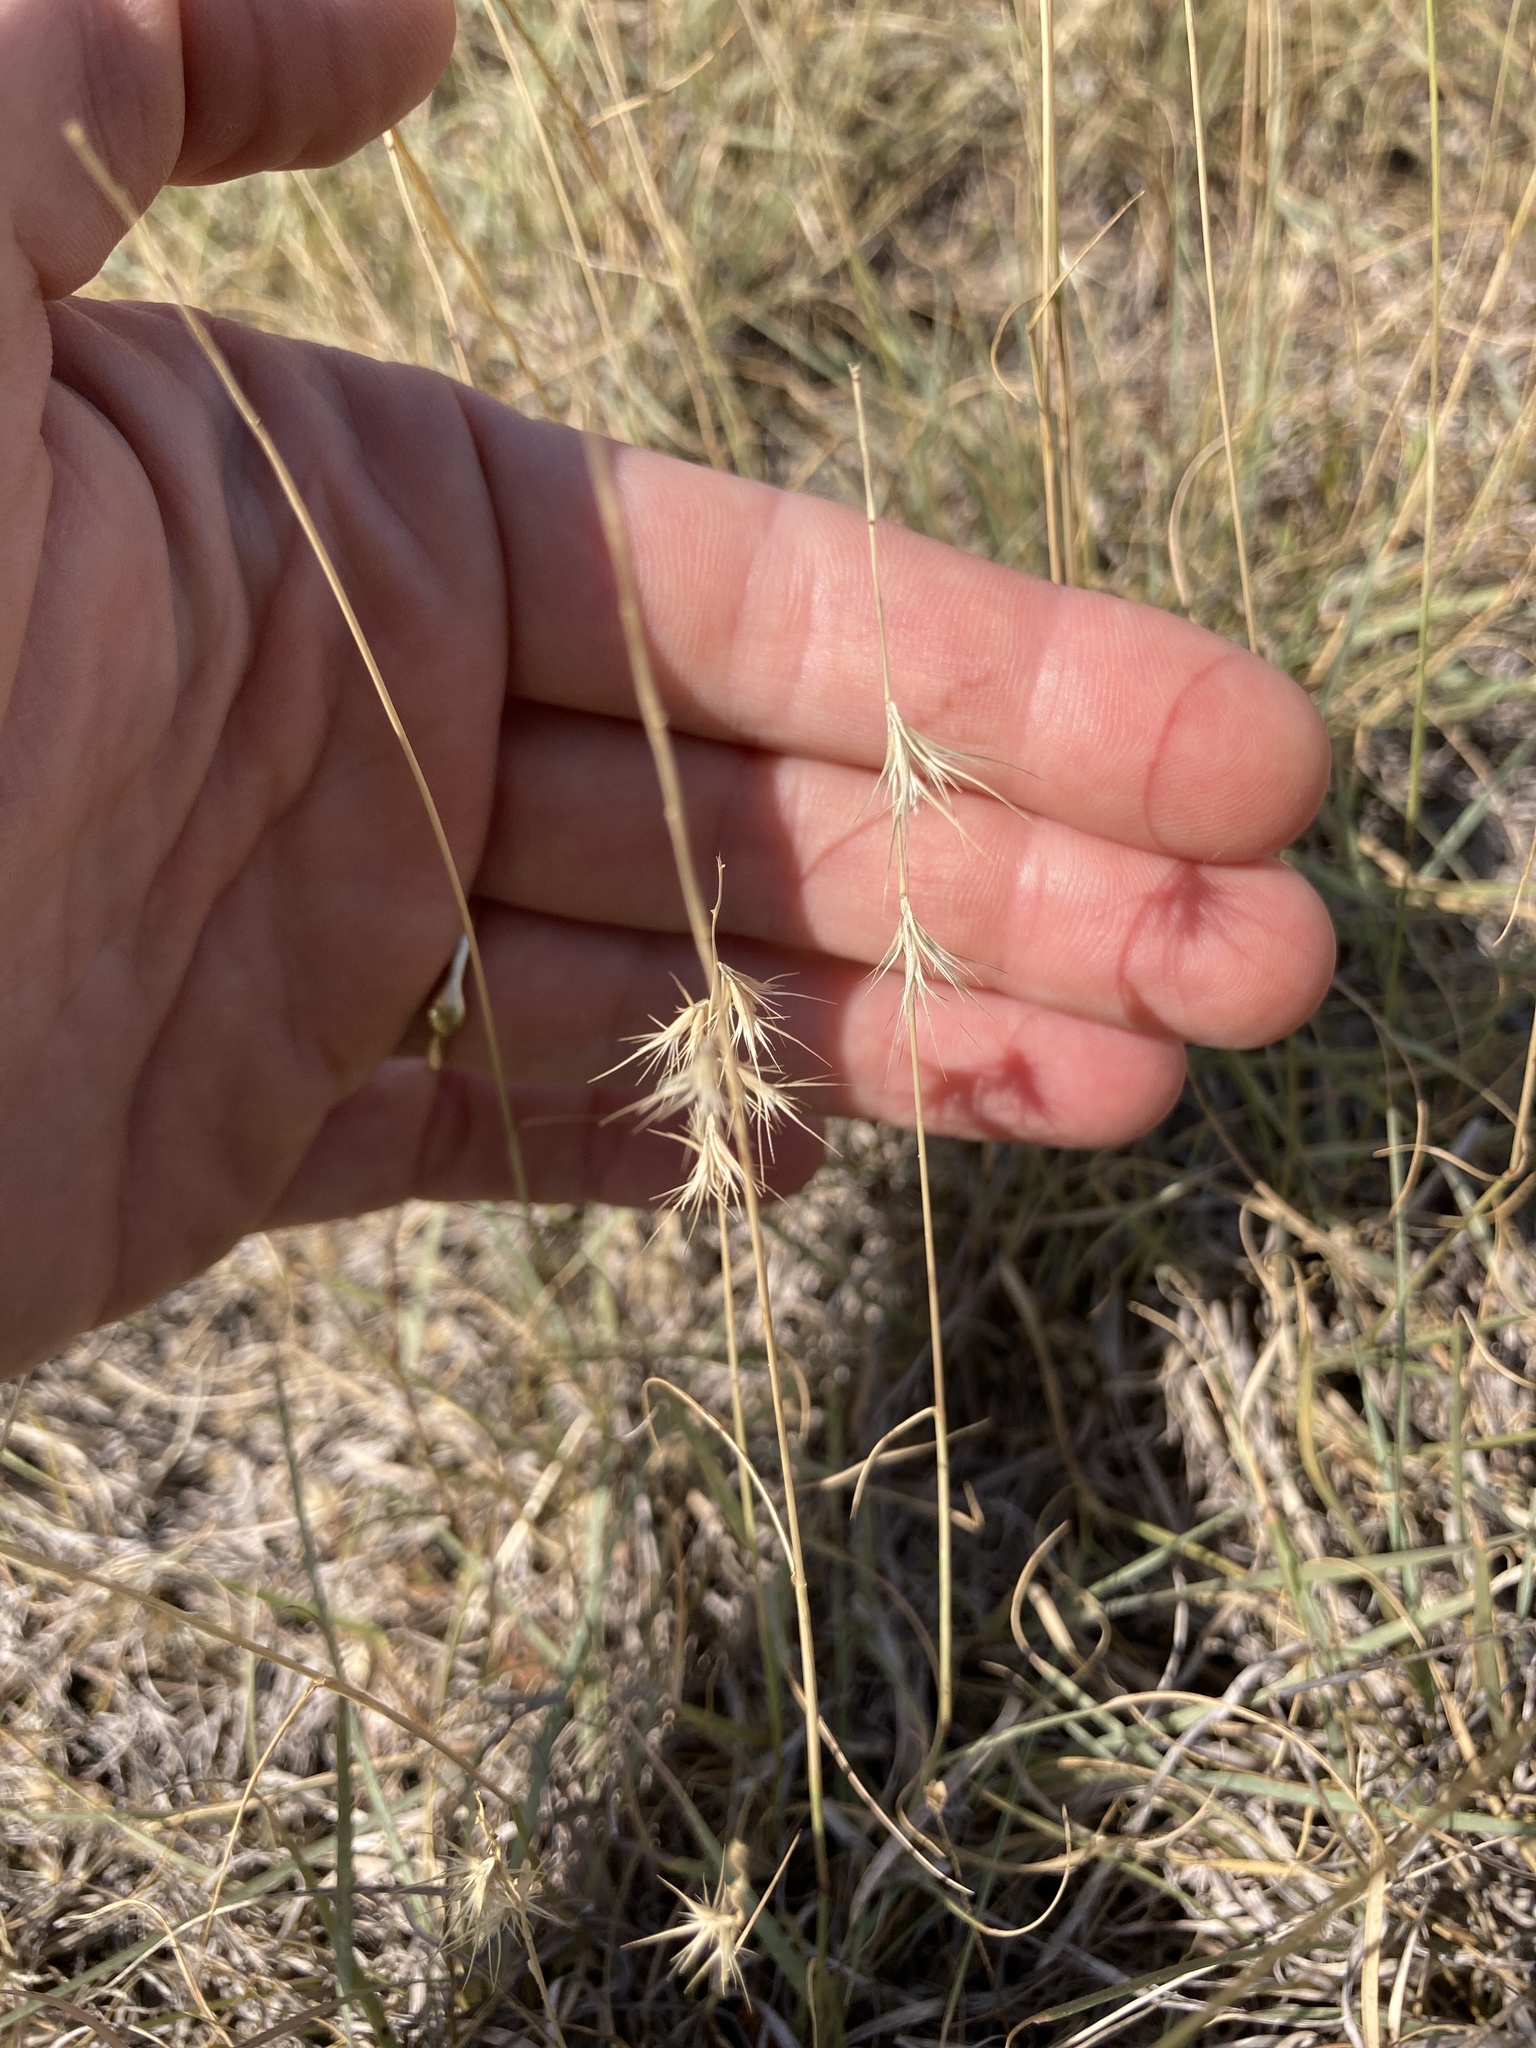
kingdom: Plantae
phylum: Tracheophyta
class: Liliopsida
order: Poales
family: Poaceae
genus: Bouteloua
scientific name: Bouteloua rigidiseta
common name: Texas grama
